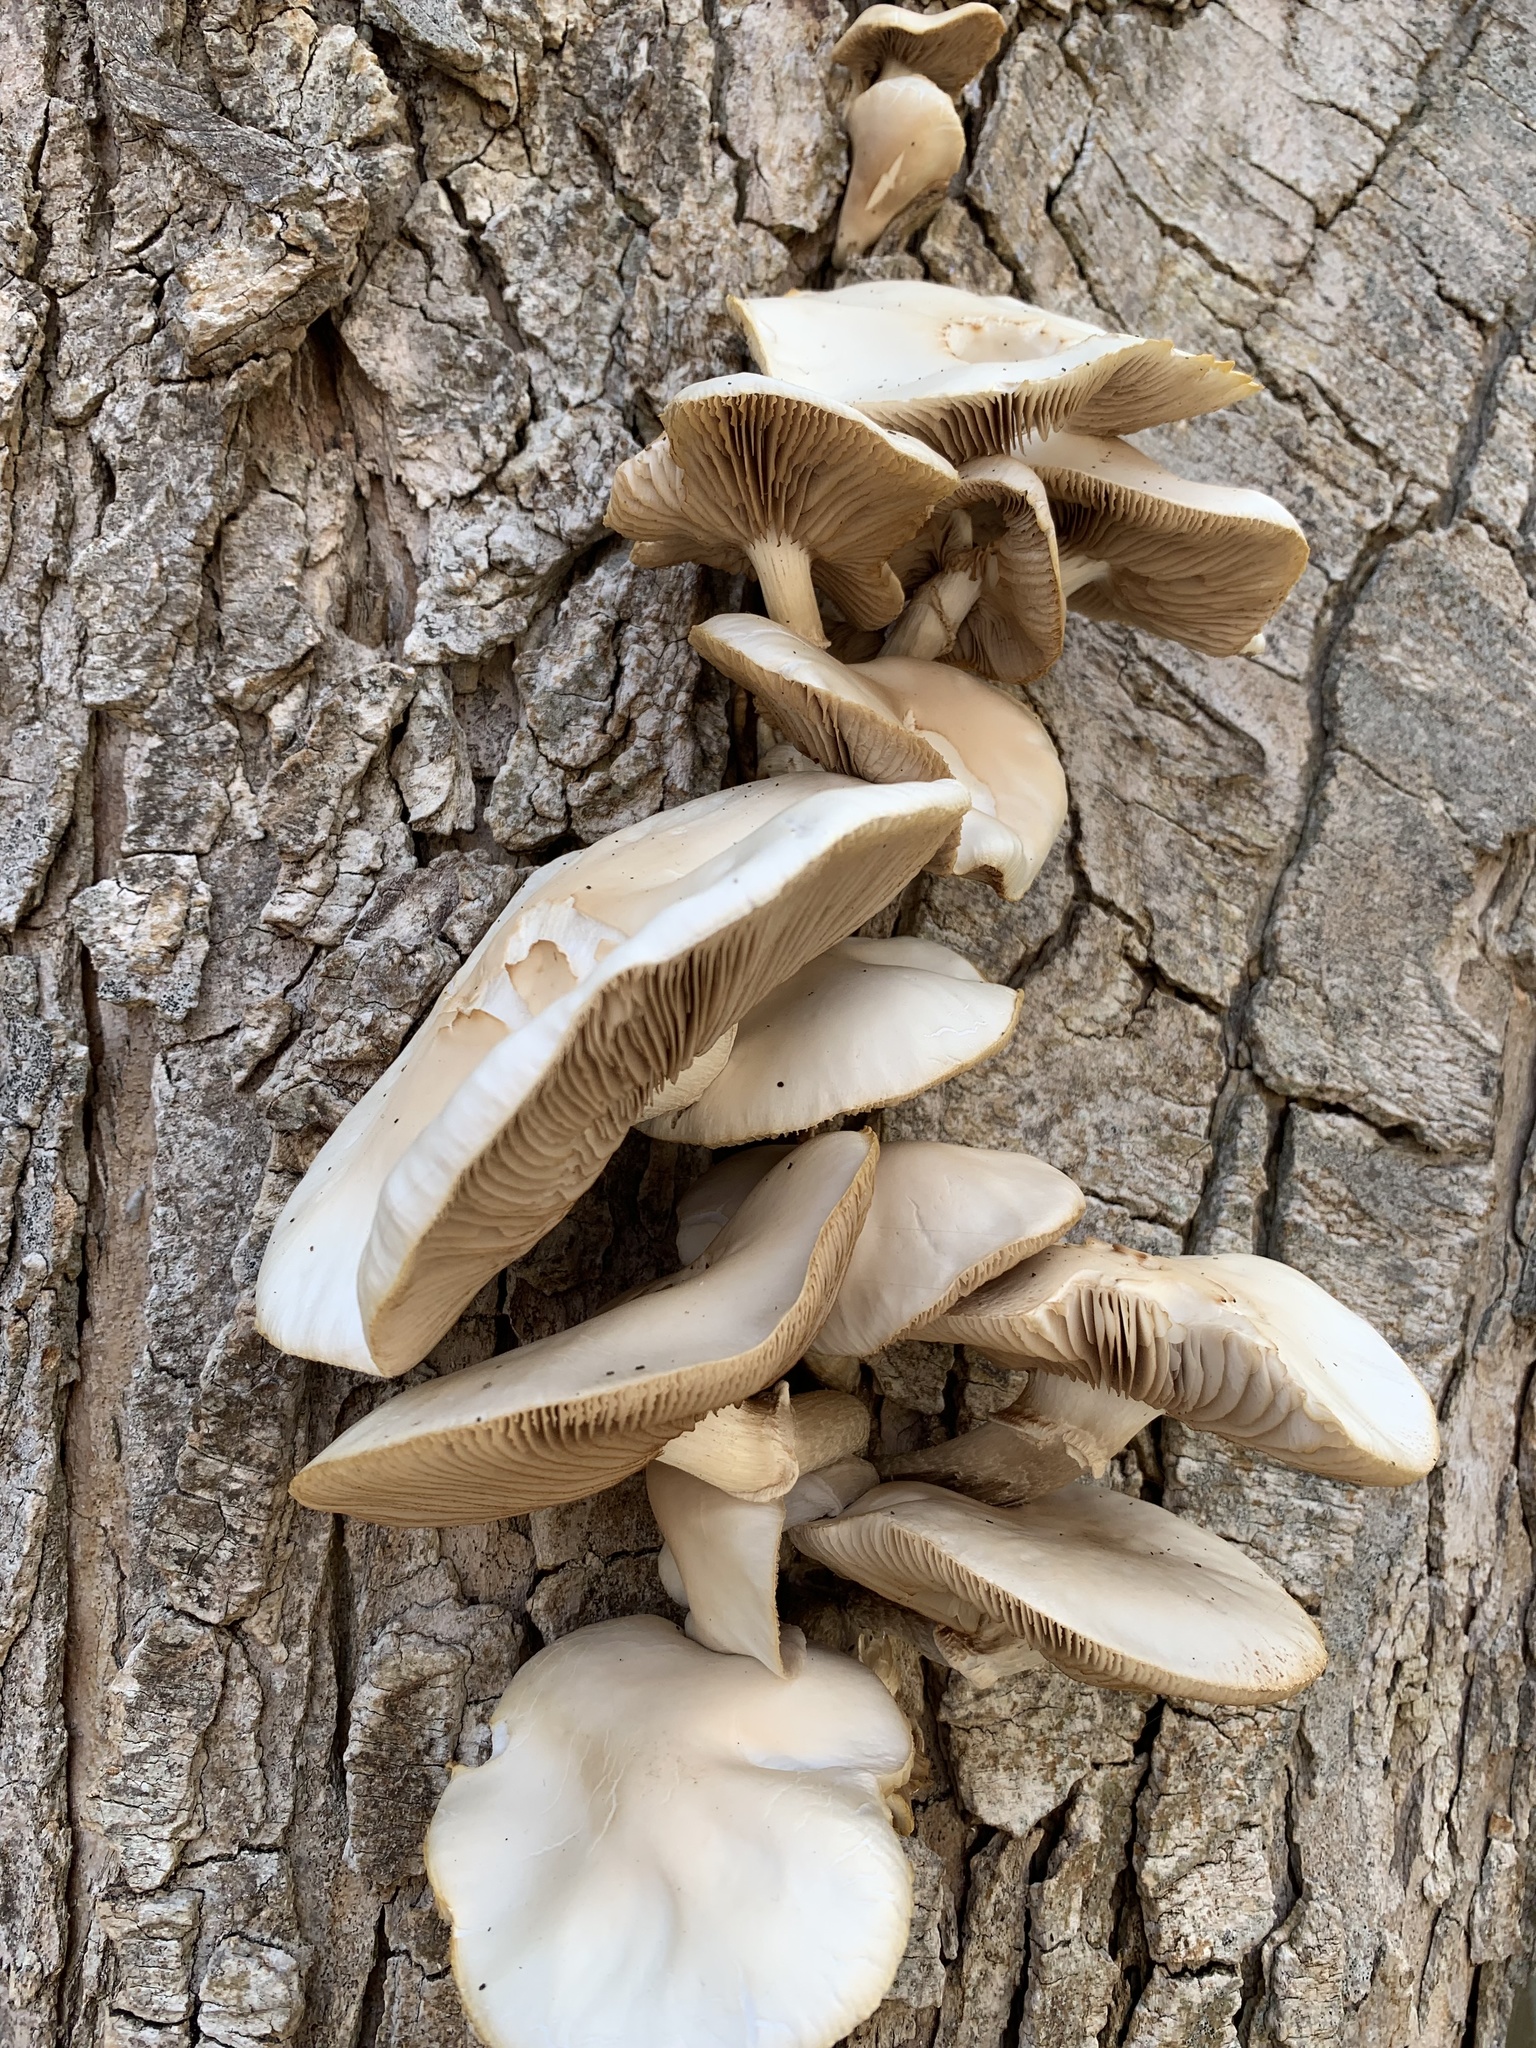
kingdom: Fungi
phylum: Basidiomycota
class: Agaricomycetes
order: Agaricales
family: Tubariaceae
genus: Cyclocybe
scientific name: Cyclocybe cylindracea
